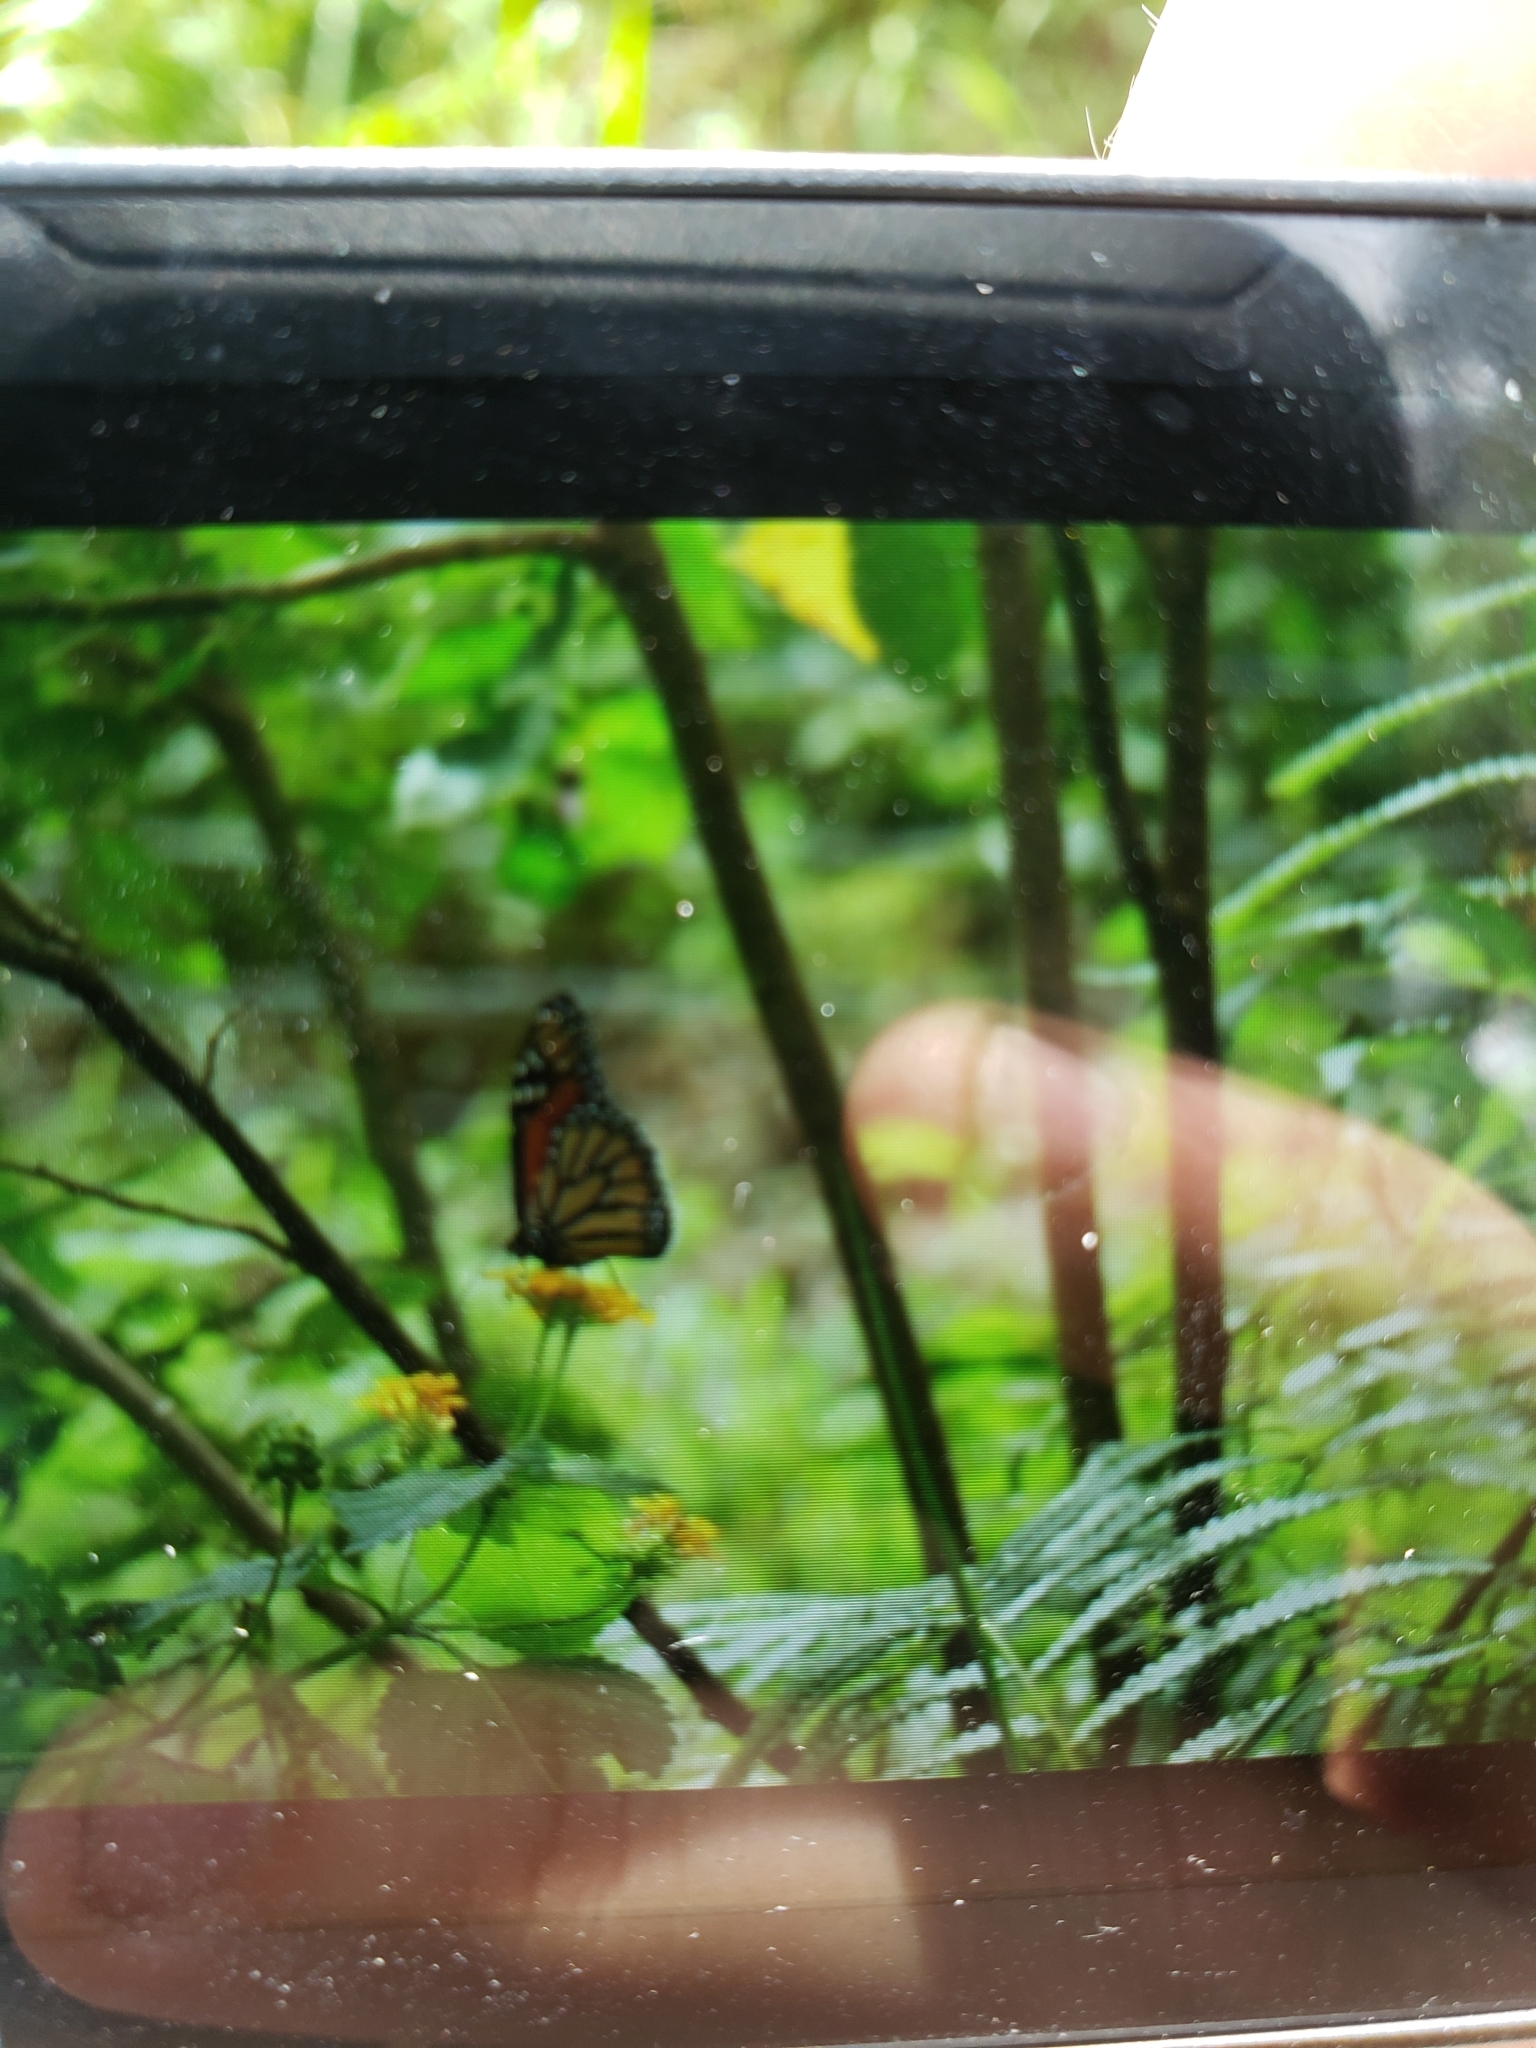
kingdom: Animalia
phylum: Arthropoda
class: Insecta
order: Lepidoptera
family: Nymphalidae
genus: Danaus
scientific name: Danaus plexippus
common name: Monarch
